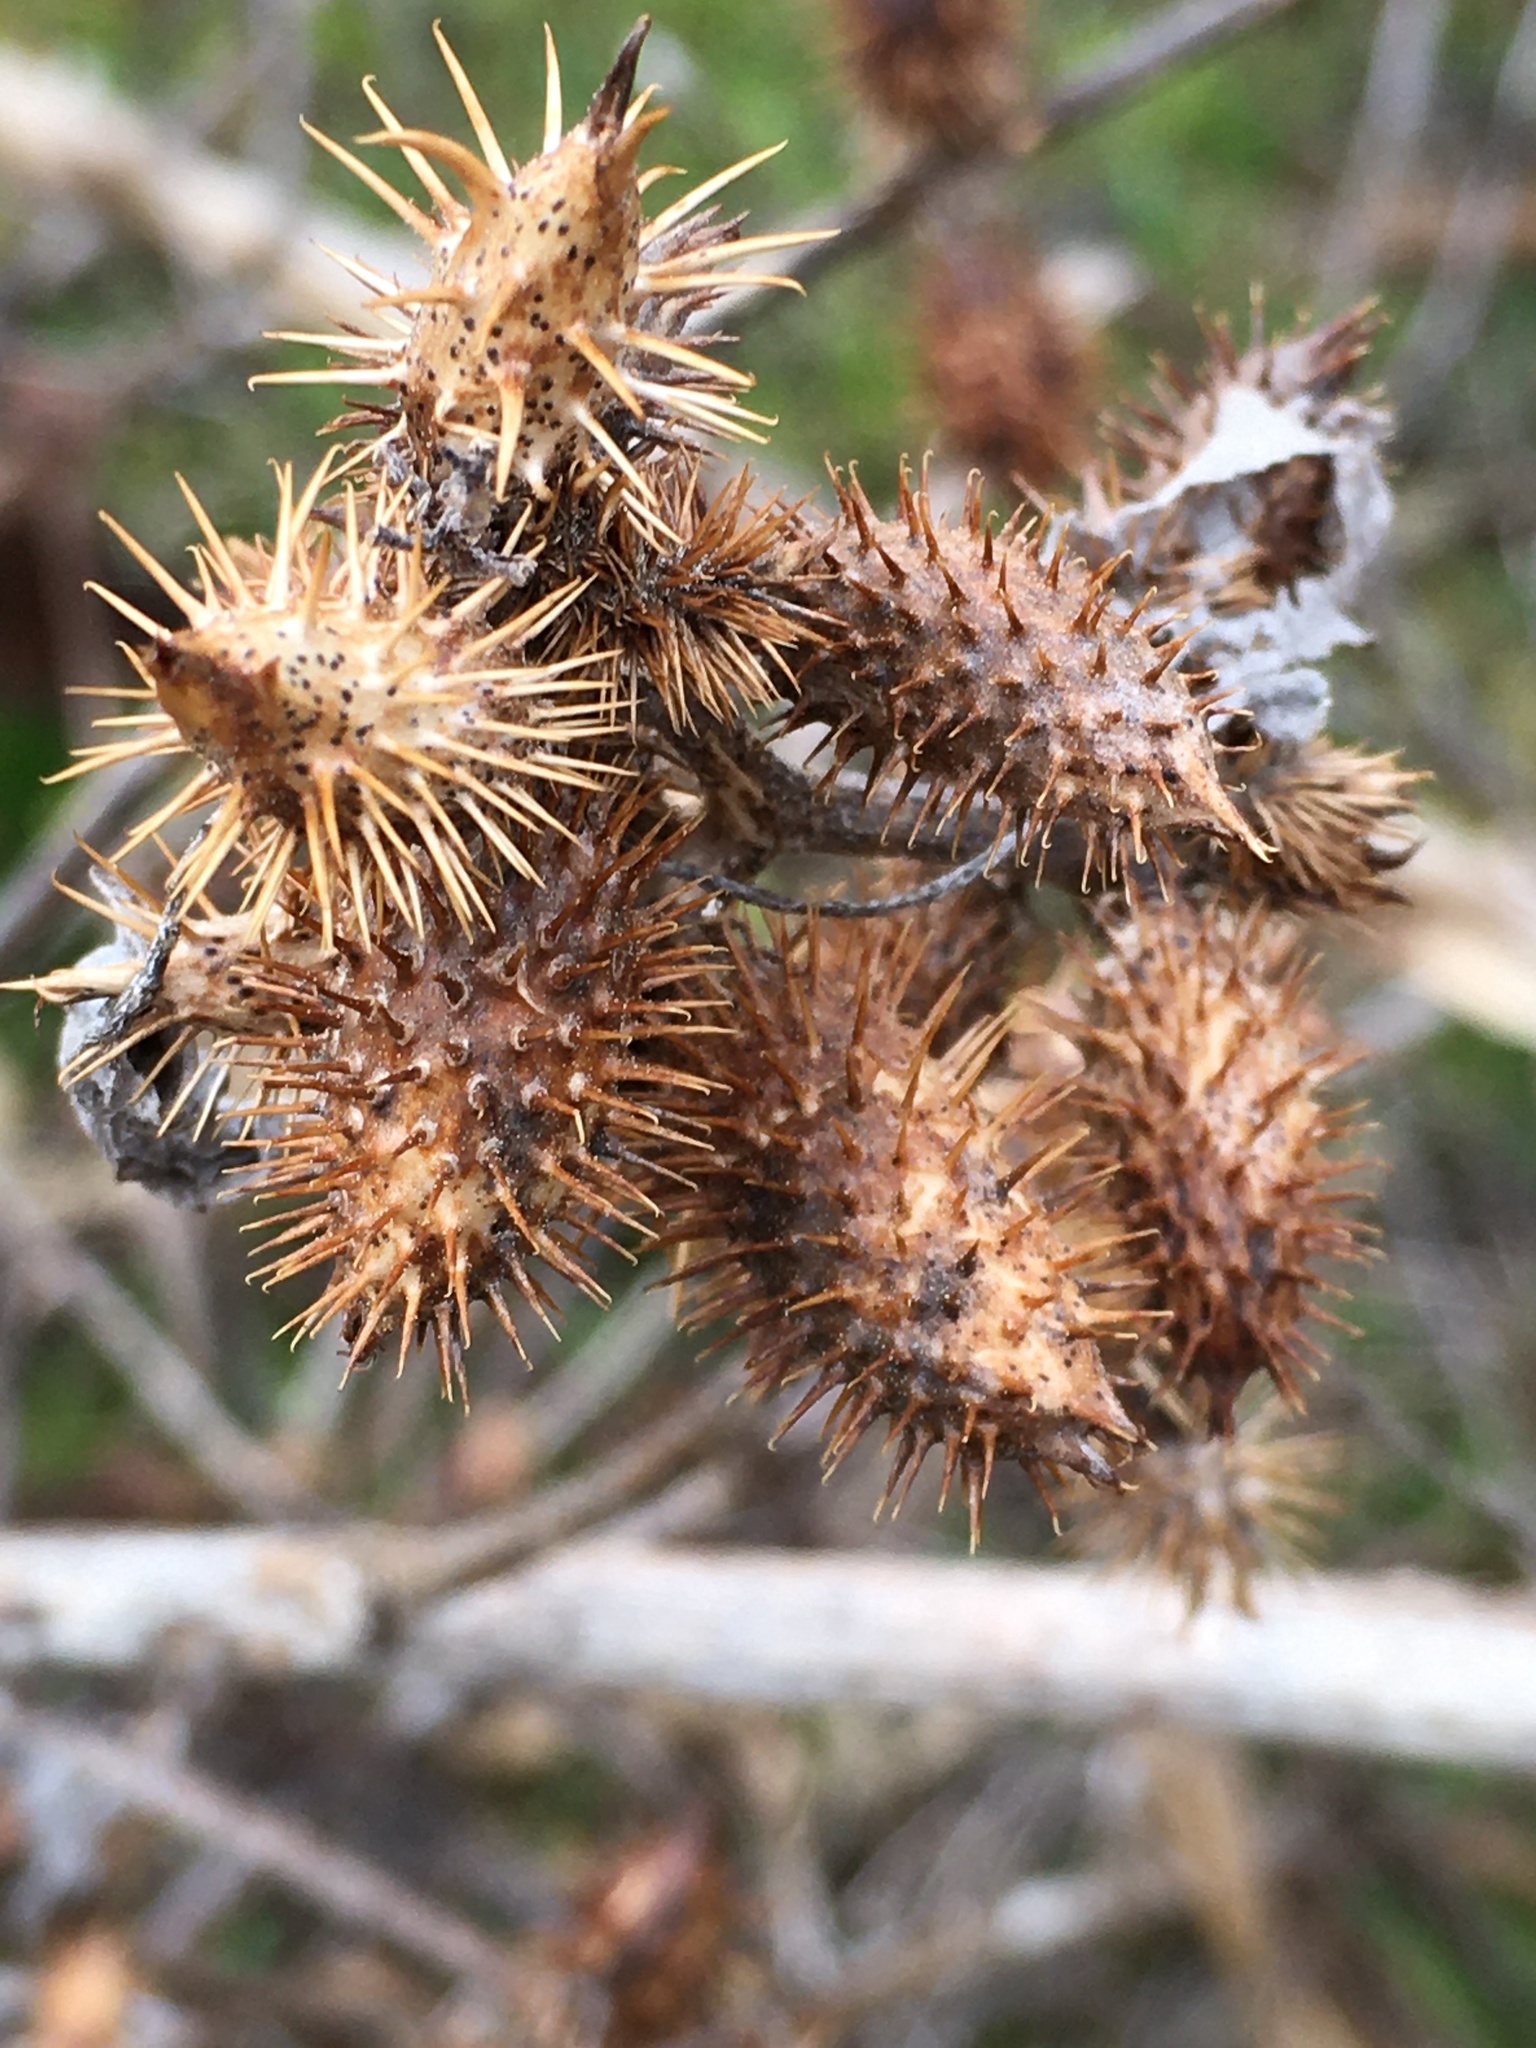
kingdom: Plantae
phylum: Tracheophyta
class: Magnoliopsida
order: Asterales
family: Asteraceae
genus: Xanthium
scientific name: Xanthium strumarium
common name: Rough cocklebur
